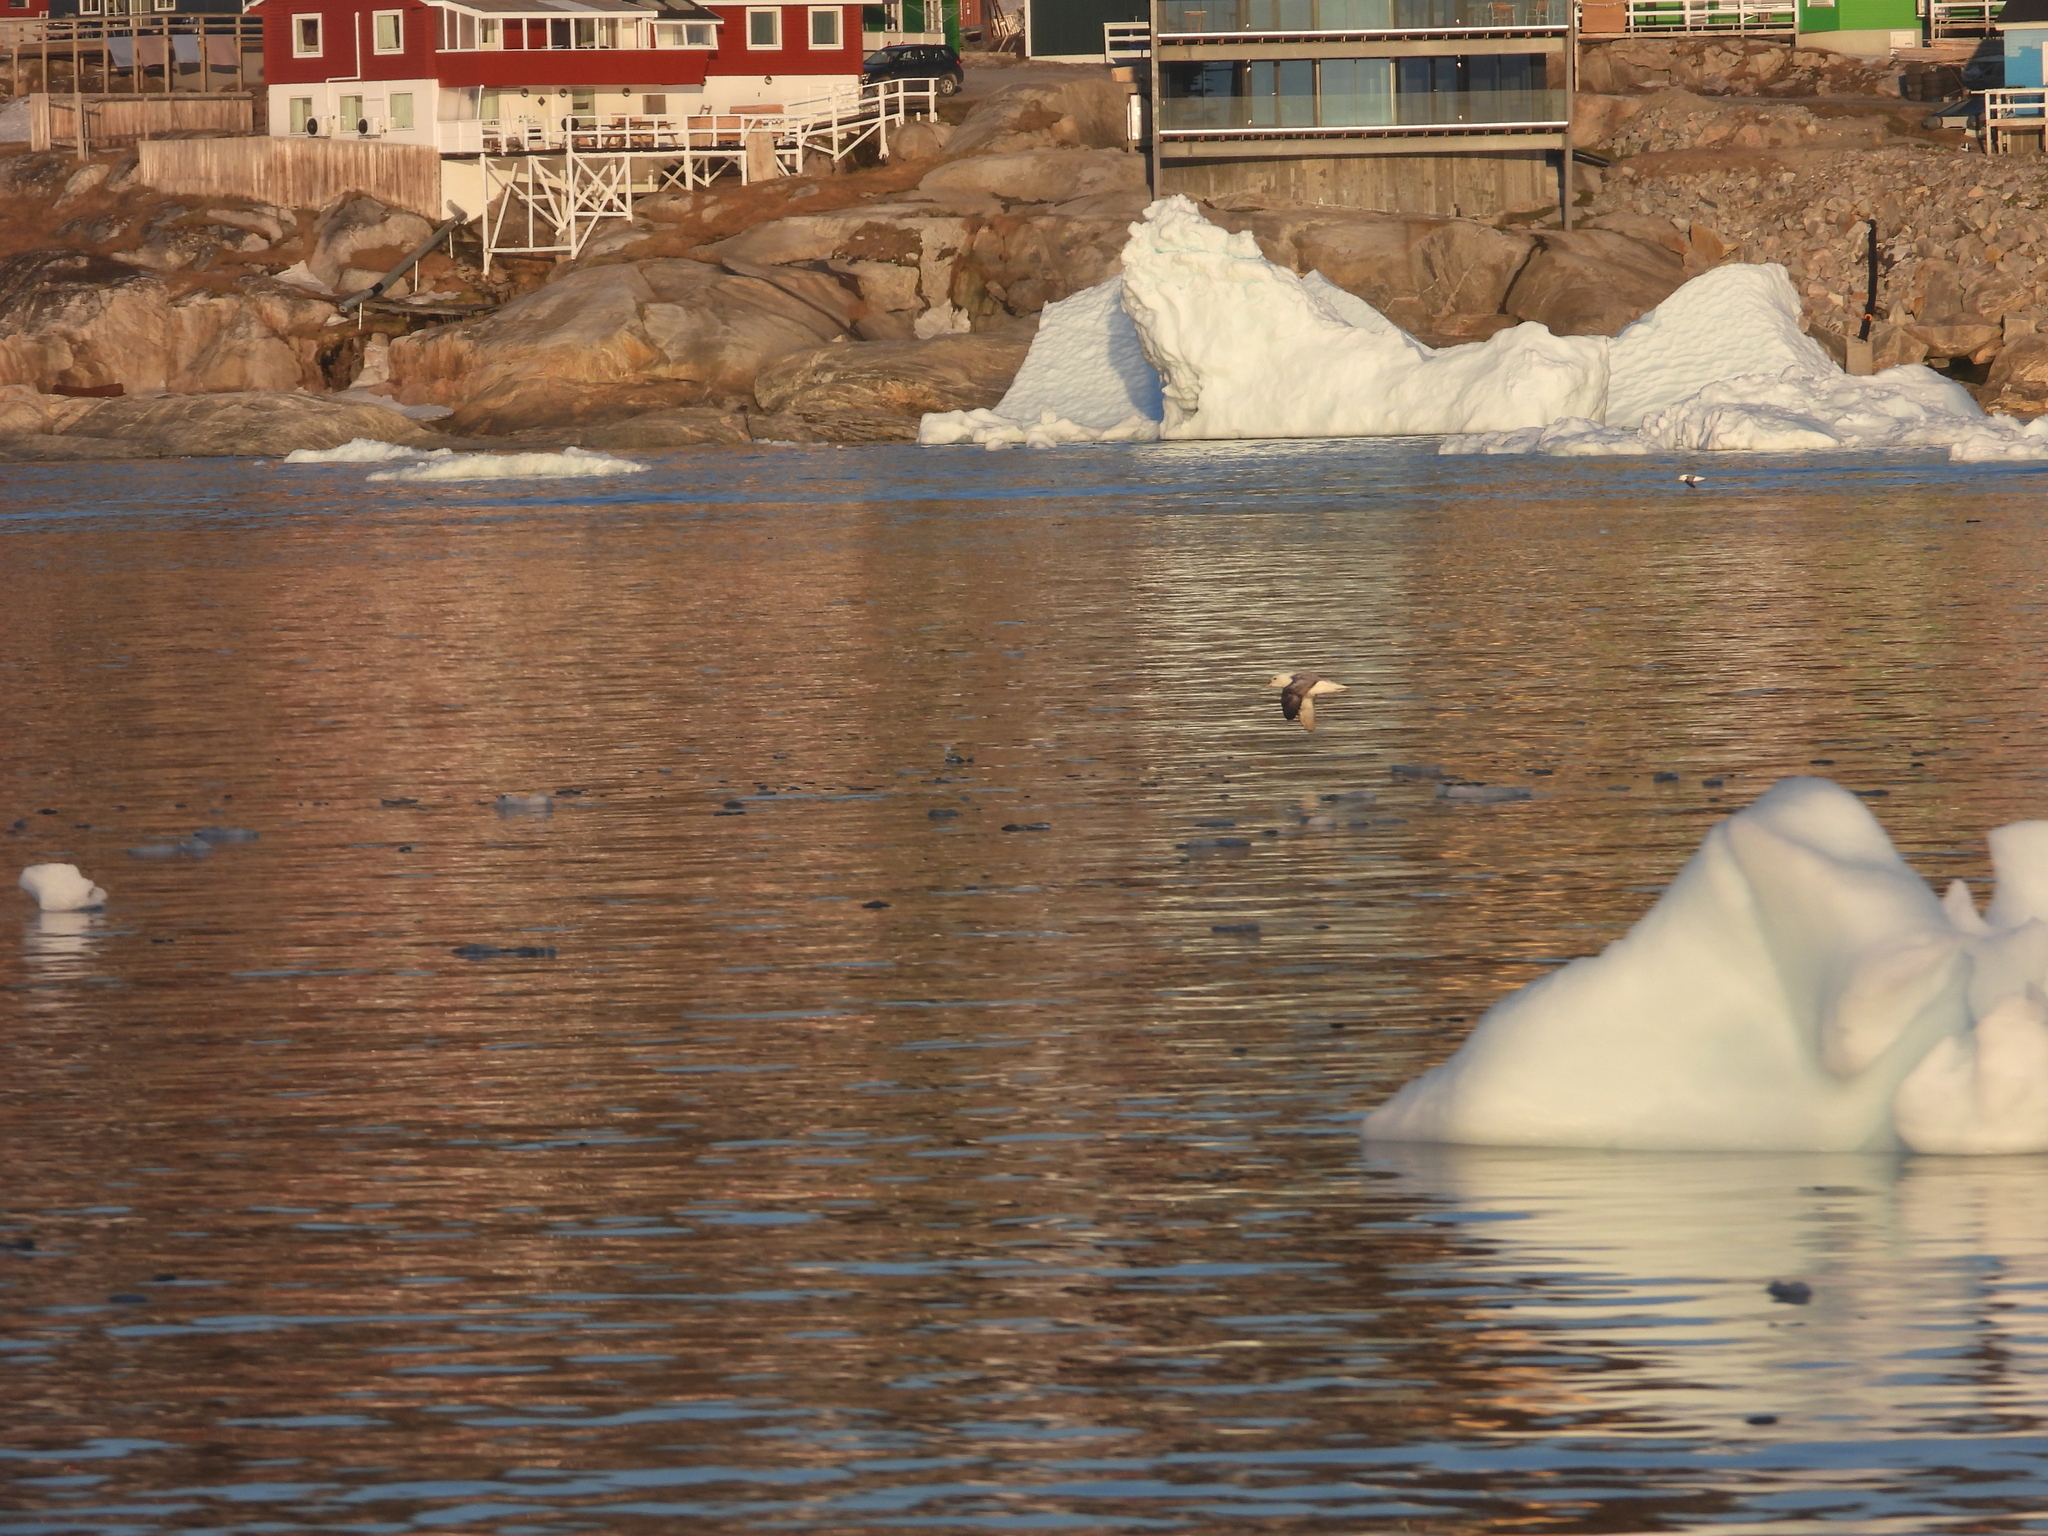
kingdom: Animalia
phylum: Chordata
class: Aves
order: Procellariiformes
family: Procellariidae
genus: Fulmarus
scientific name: Fulmarus glacialis
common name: Northern fulmar
